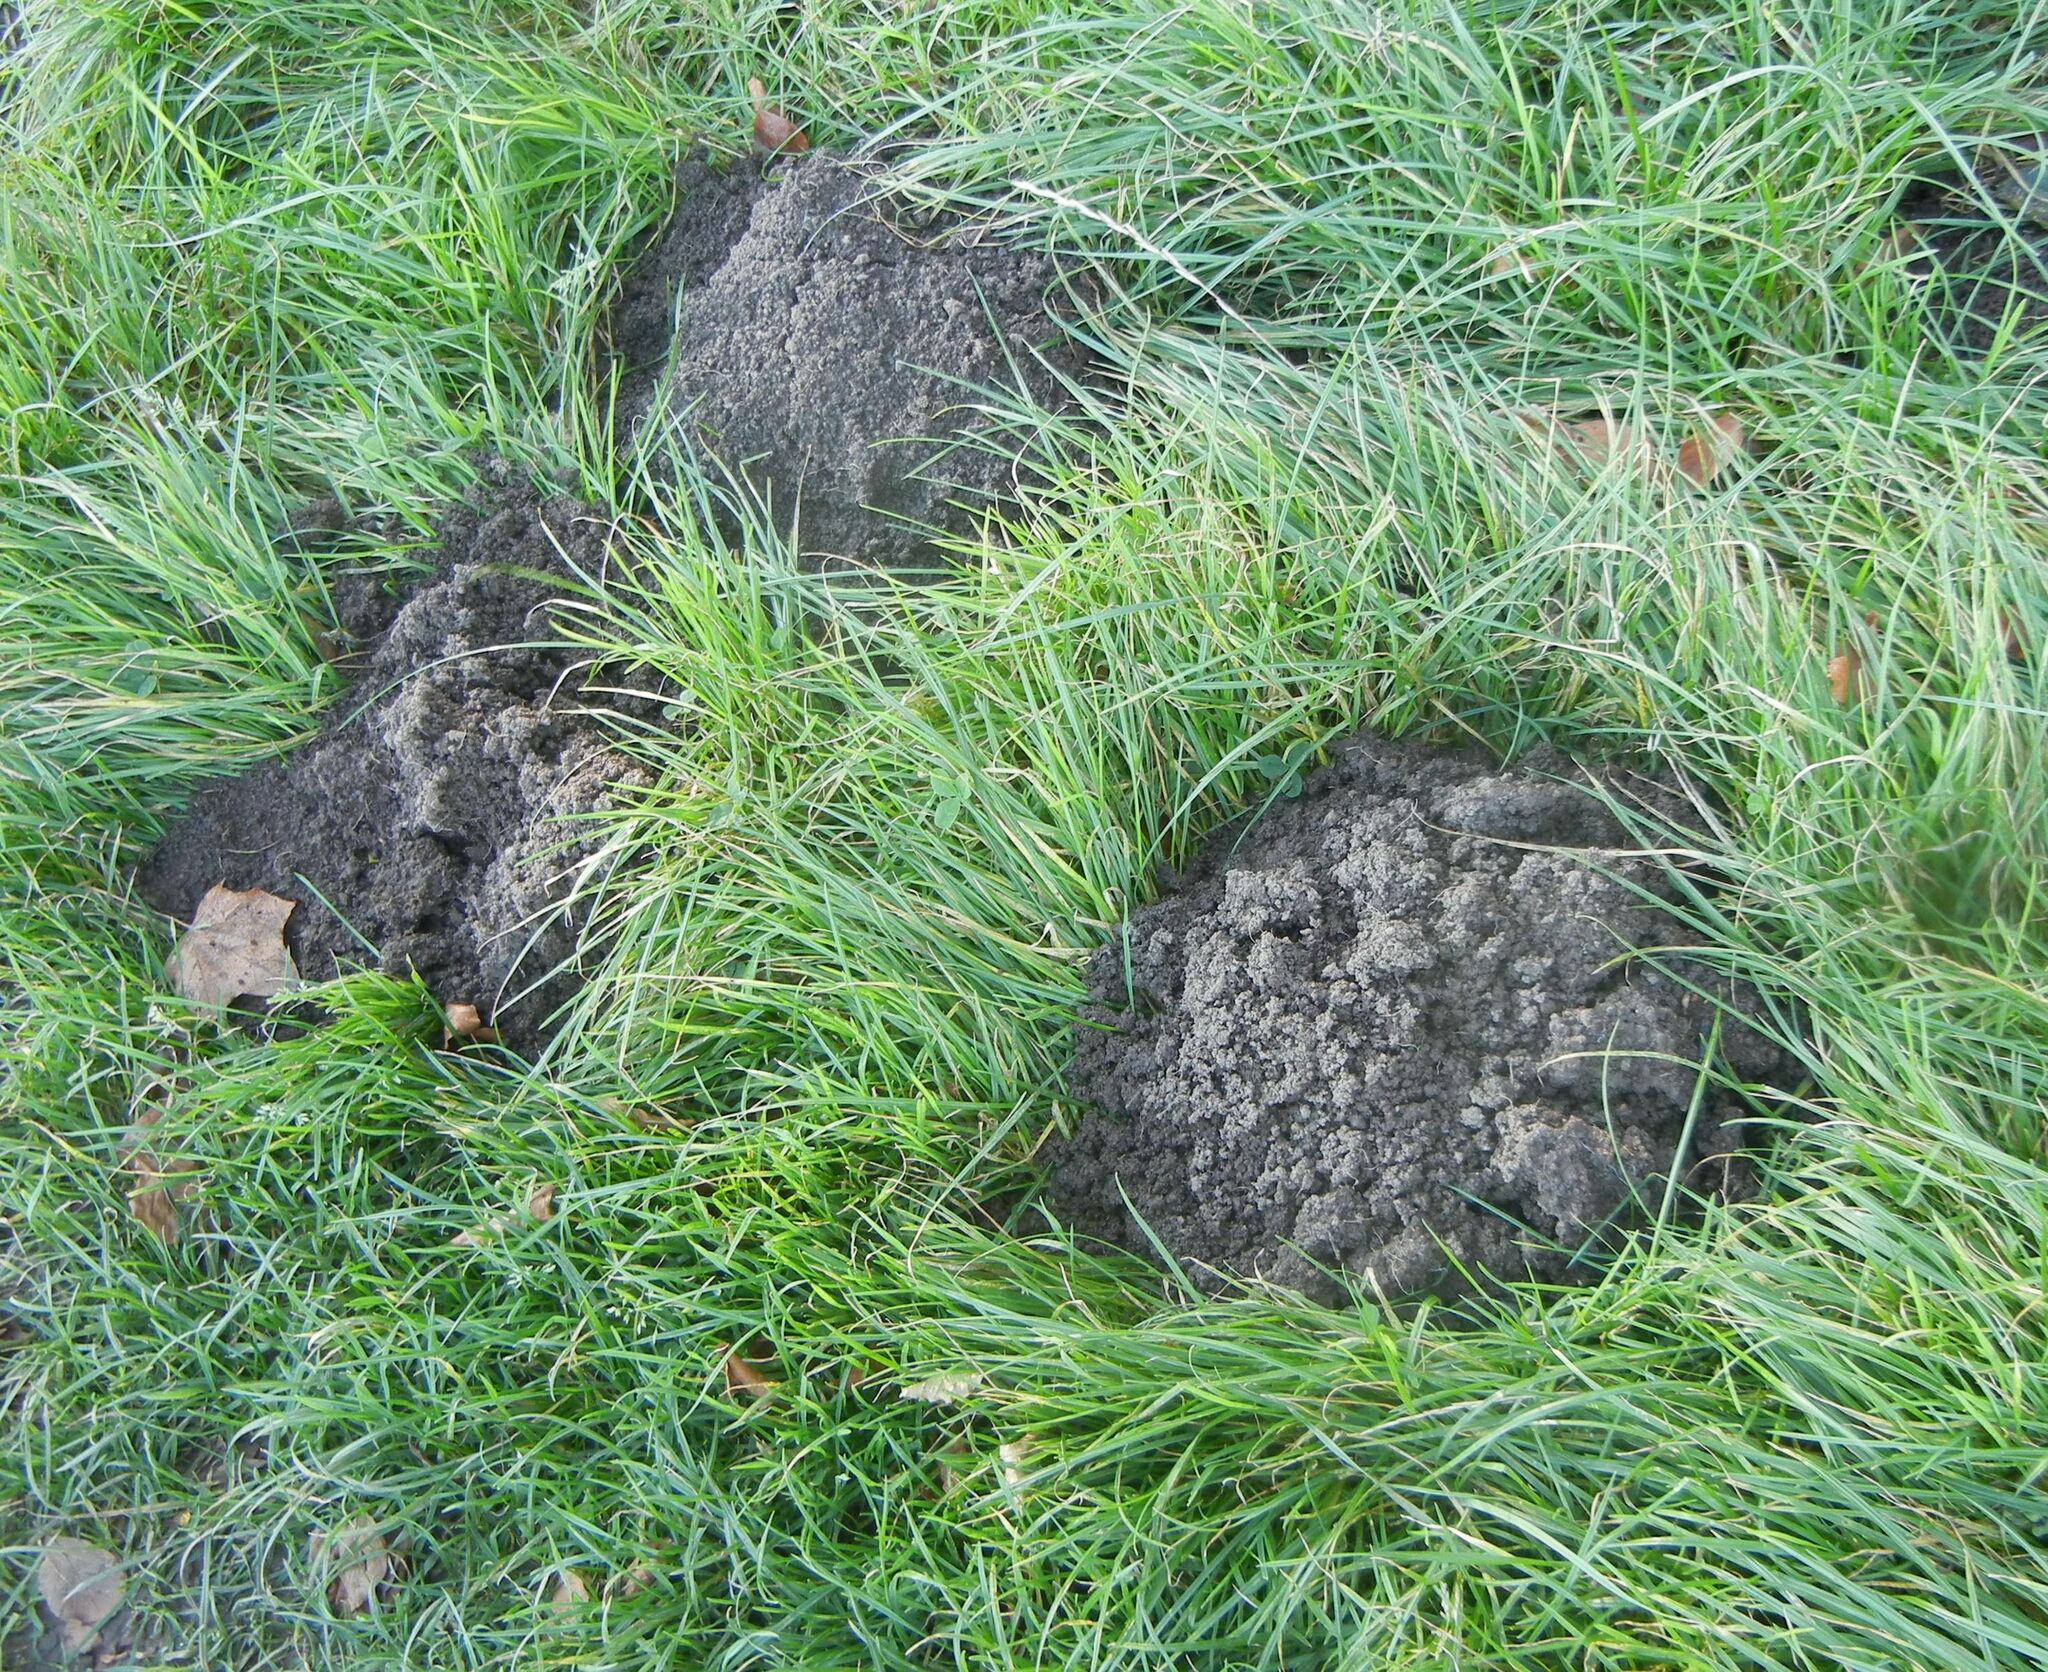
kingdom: Animalia
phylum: Chordata
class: Mammalia
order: Soricomorpha
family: Talpidae
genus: Talpa
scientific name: Talpa europaea
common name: European mole
